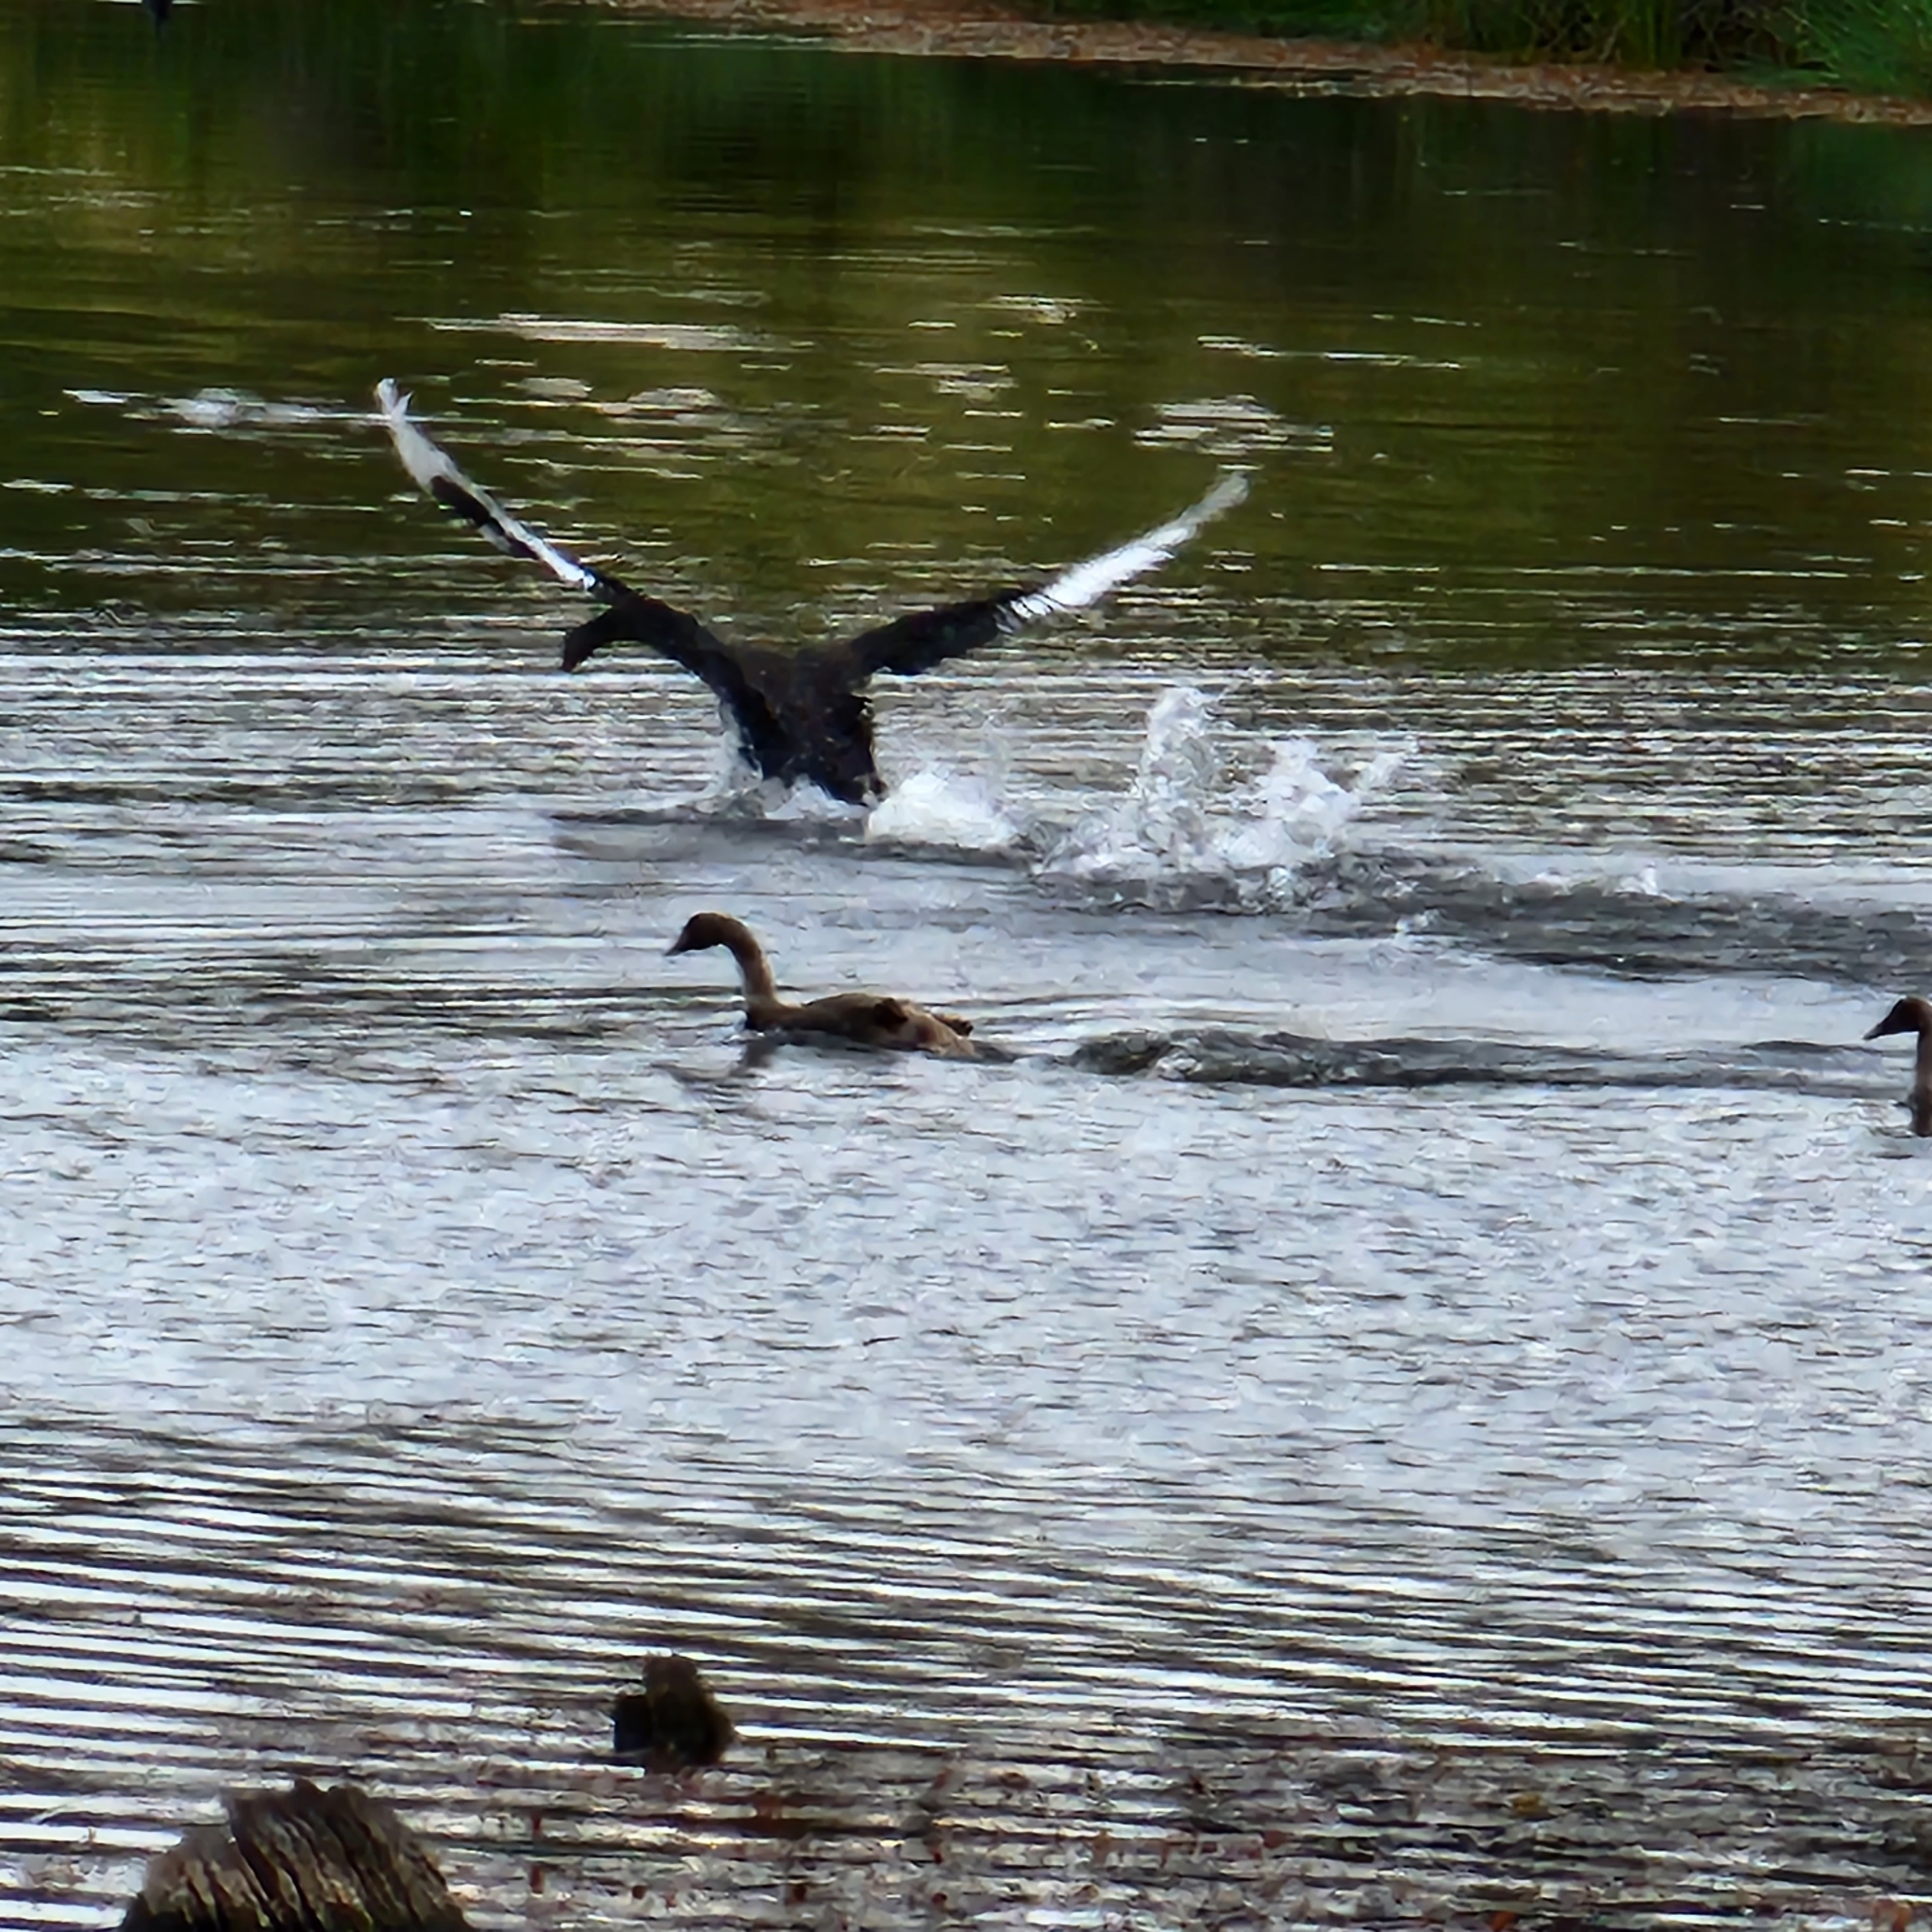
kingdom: Animalia
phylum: Chordata
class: Aves
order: Anseriformes
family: Anatidae
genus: Cygnus
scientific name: Cygnus atratus
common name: Black swan
